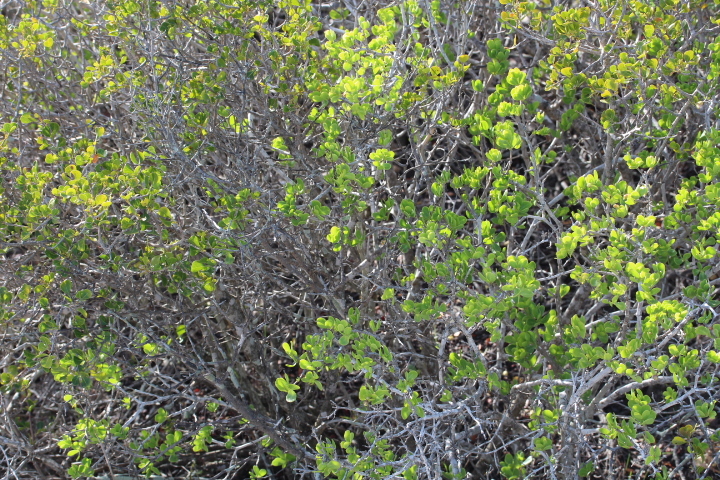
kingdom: Plantae
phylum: Tracheophyta
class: Magnoliopsida
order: Sapindales
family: Anacardiaceae
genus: Searsia
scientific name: Searsia glauca
